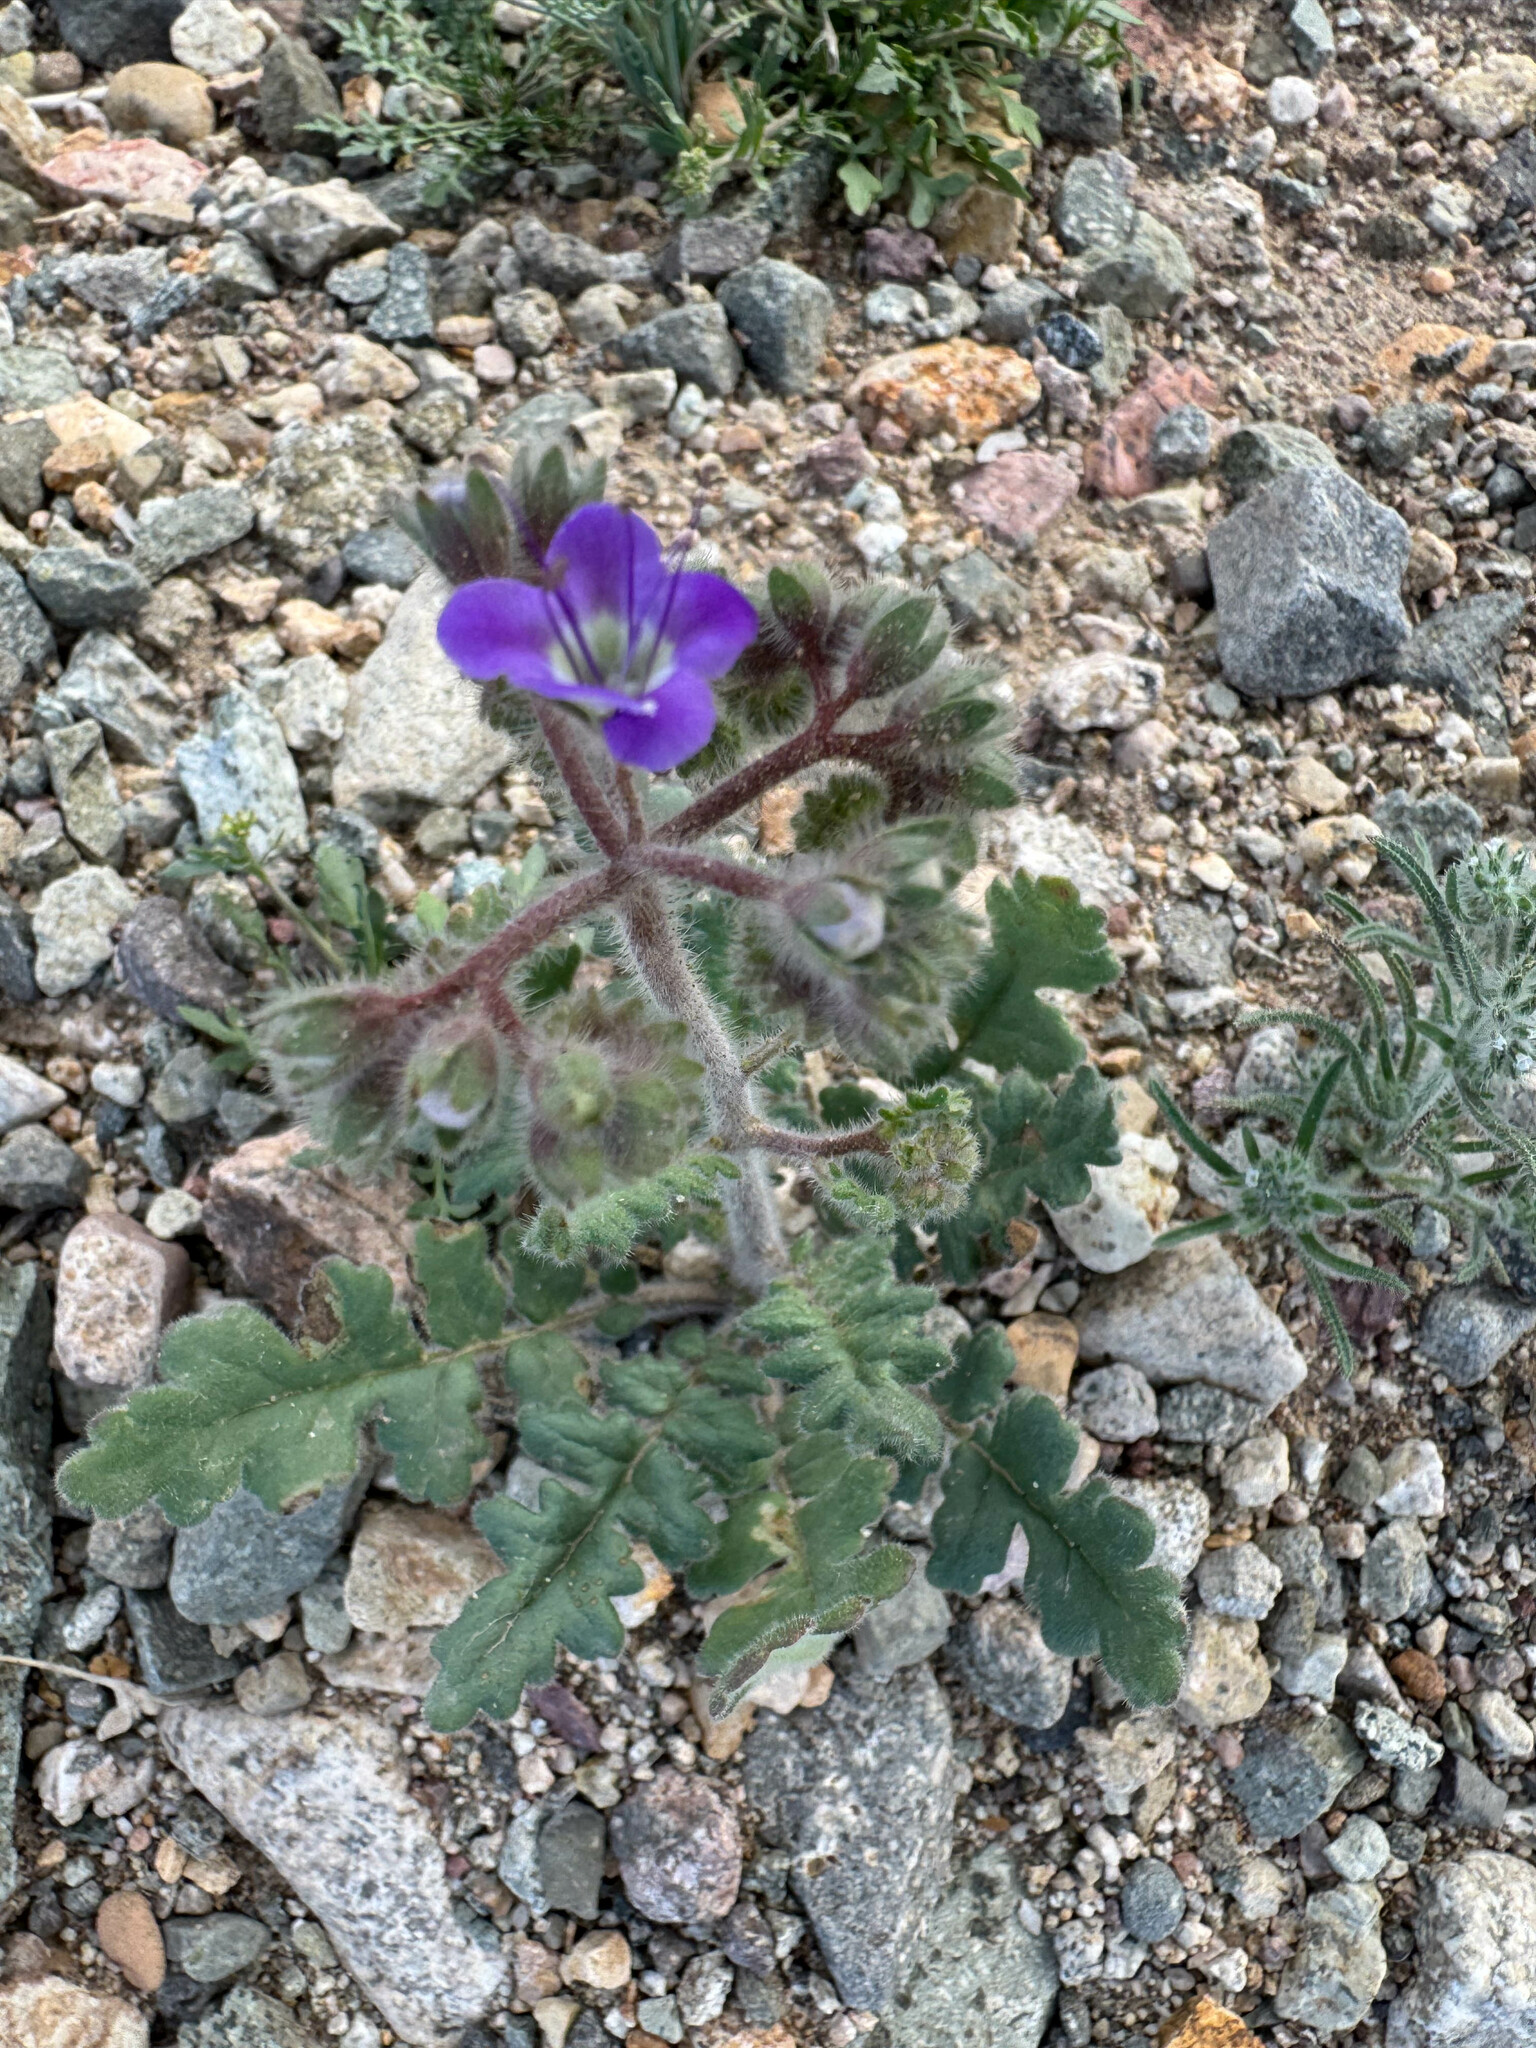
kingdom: Plantae
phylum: Tracheophyta
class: Magnoliopsida
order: Boraginales
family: Hydrophyllaceae
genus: Phacelia
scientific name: Phacelia crenulata
